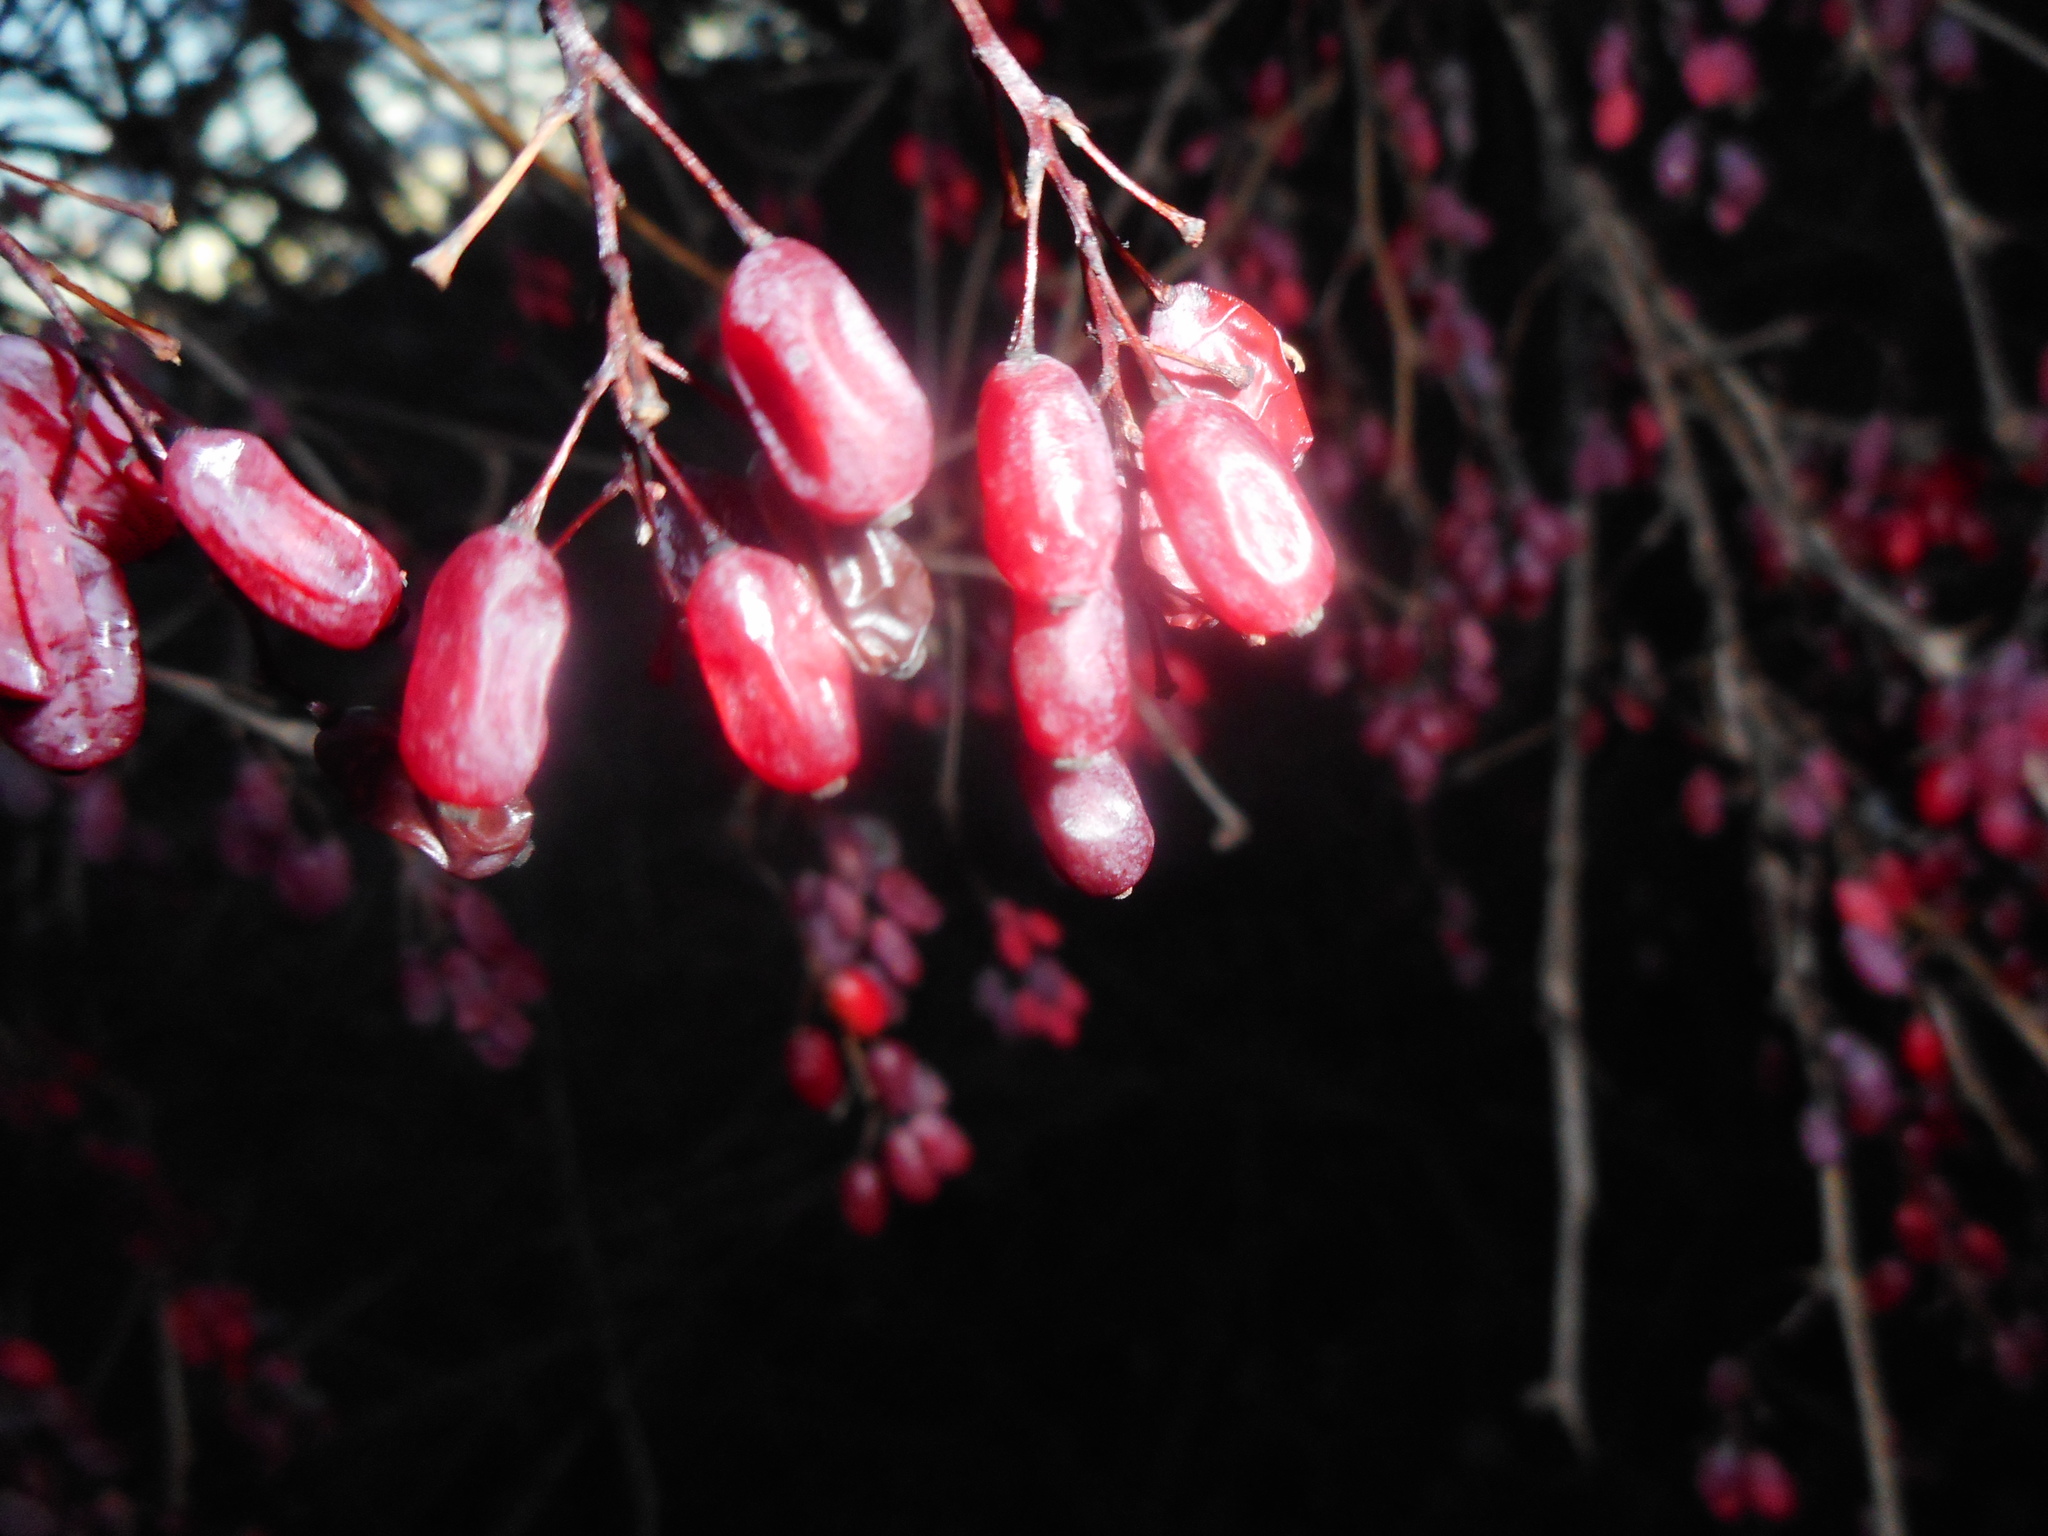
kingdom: Plantae
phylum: Tracheophyta
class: Magnoliopsida
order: Ranunculales
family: Berberidaceae
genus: Berberis
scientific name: Berberis vulgaris
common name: Barberry
